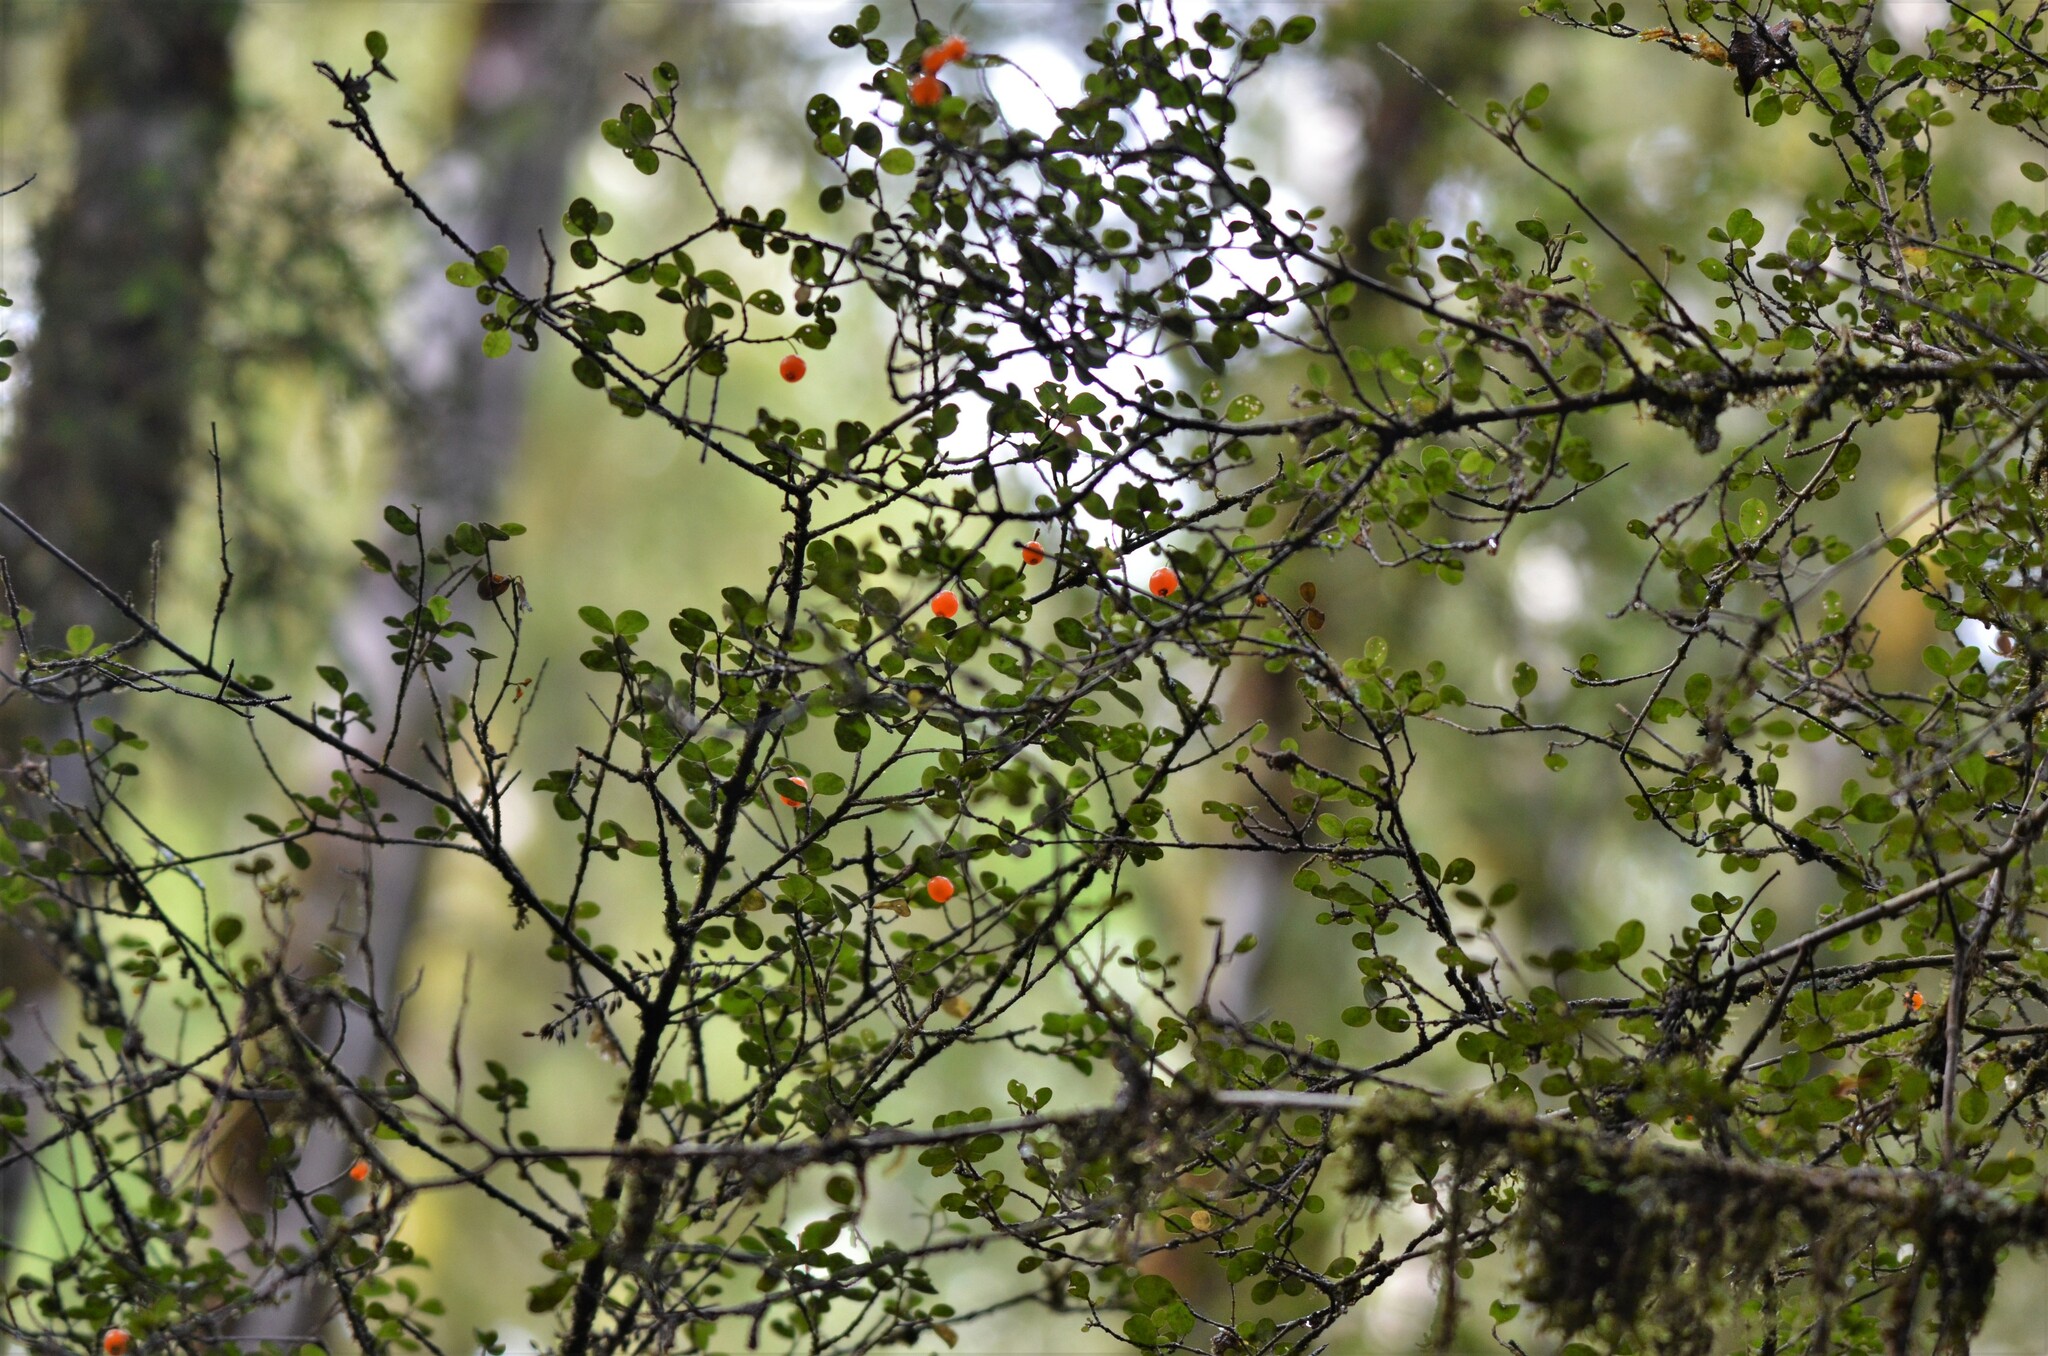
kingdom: Plantae
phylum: Tracheophyta
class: Magnoliopsida
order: Myrtales
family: Myrtaceae
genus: Neomyrtus
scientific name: Neomyrtus pedunculata
